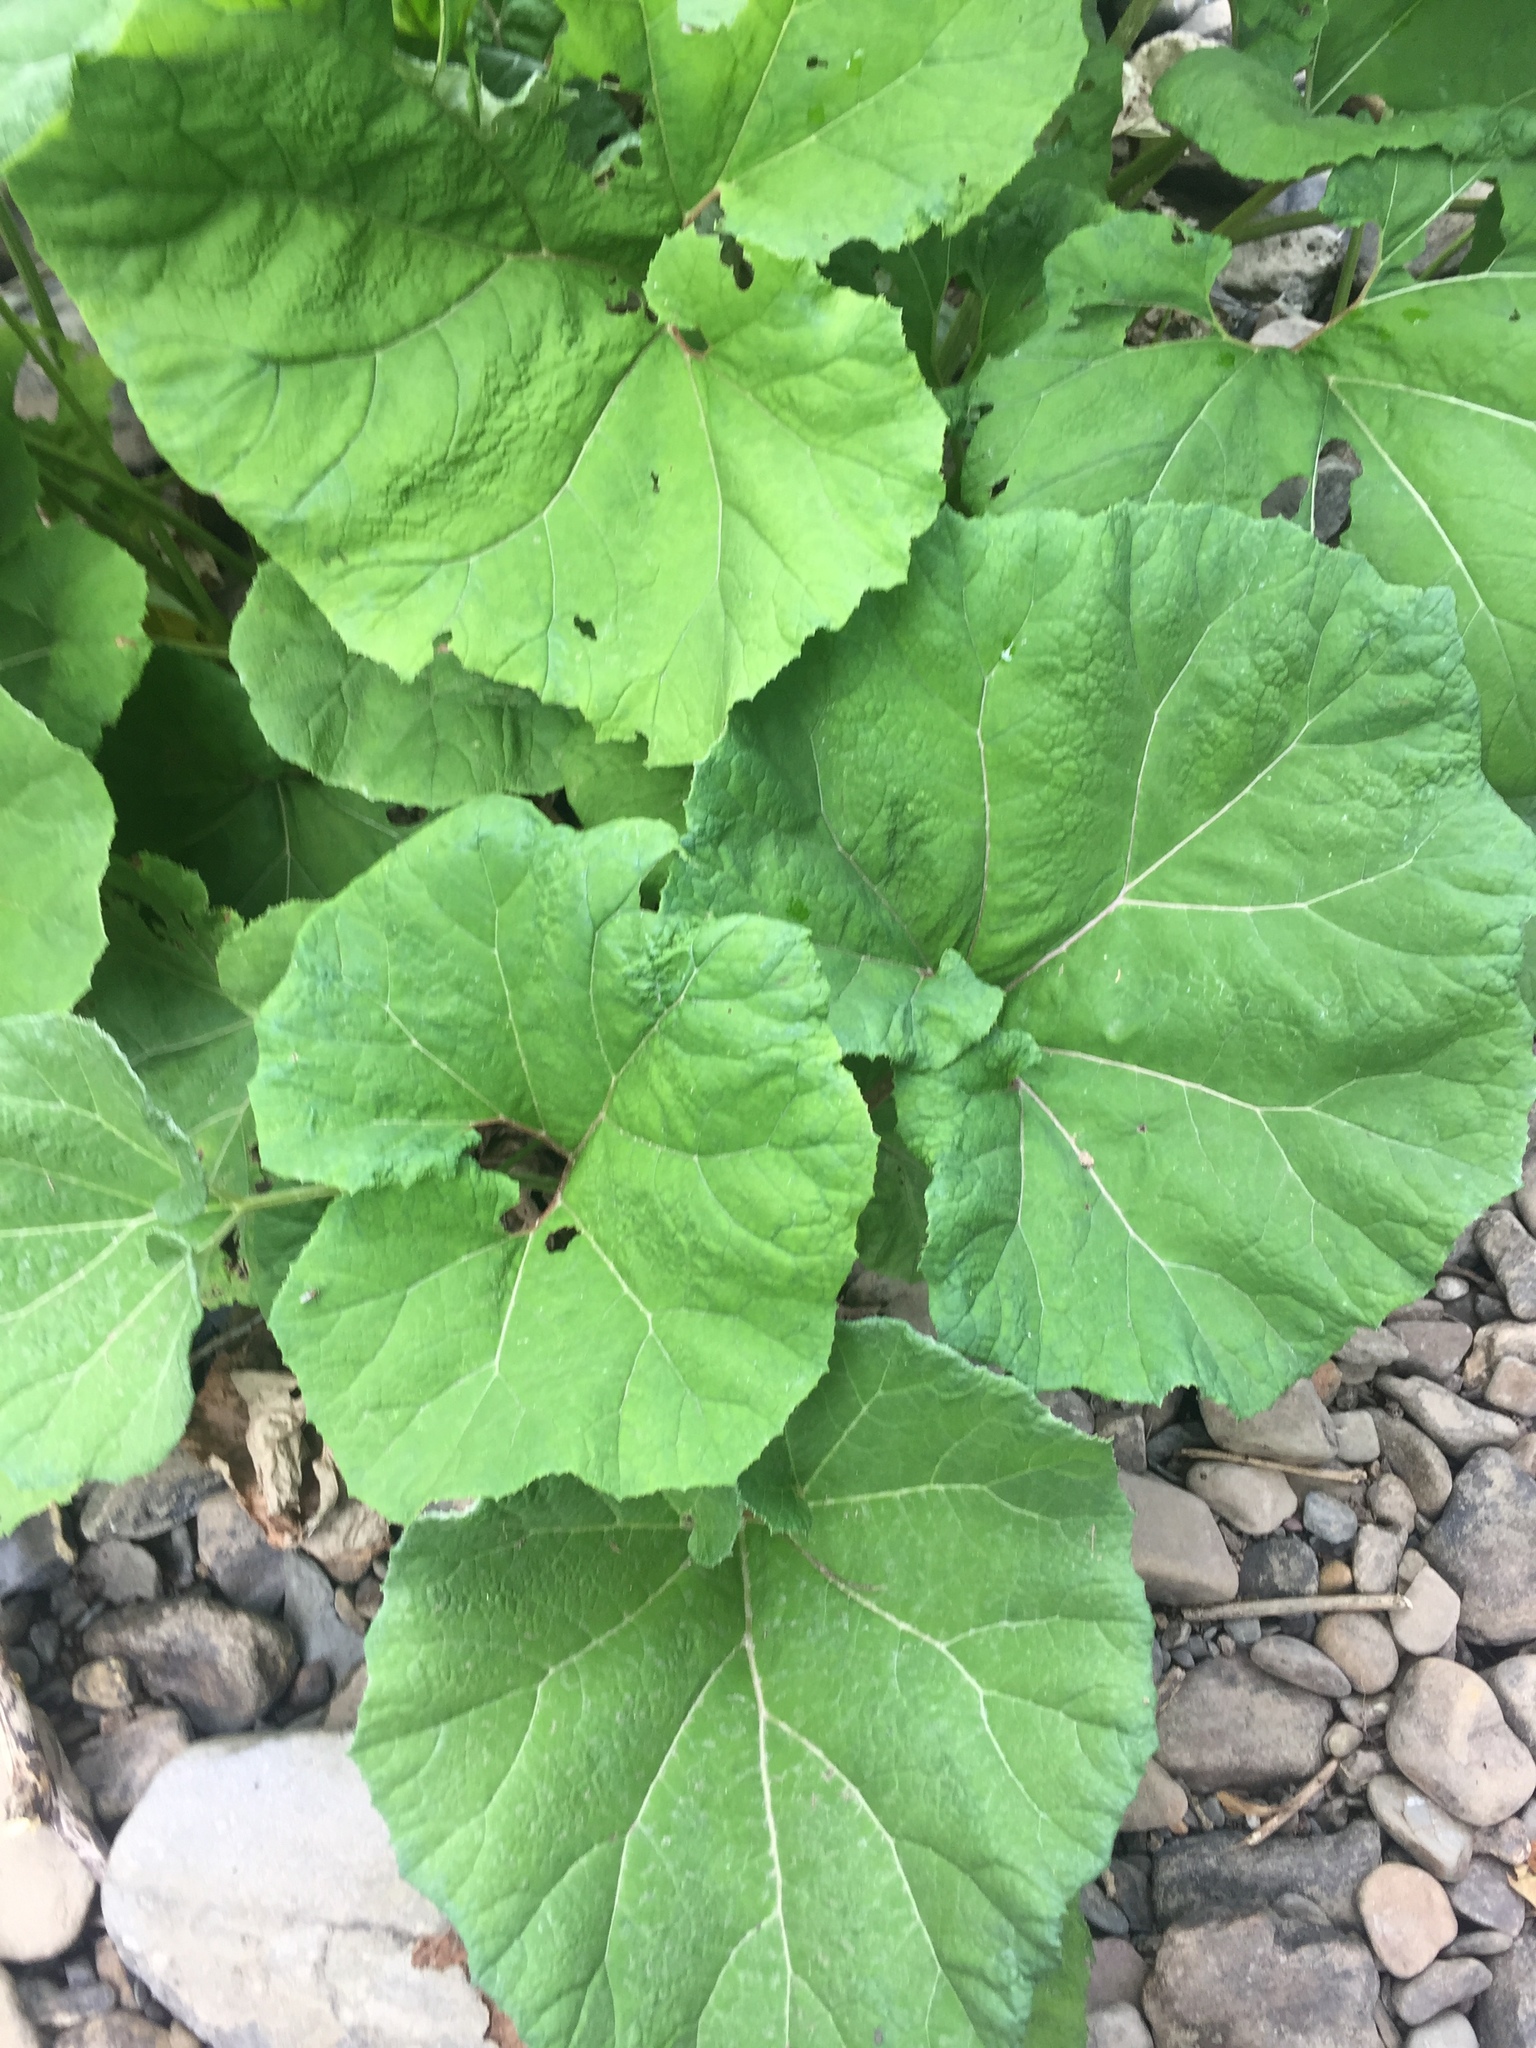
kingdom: Plantae
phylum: Tracheophyta
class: Magnoliopsida
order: Asterales
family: Asteraceae
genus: Petasites
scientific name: Petasites hybridus
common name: Butterbur
